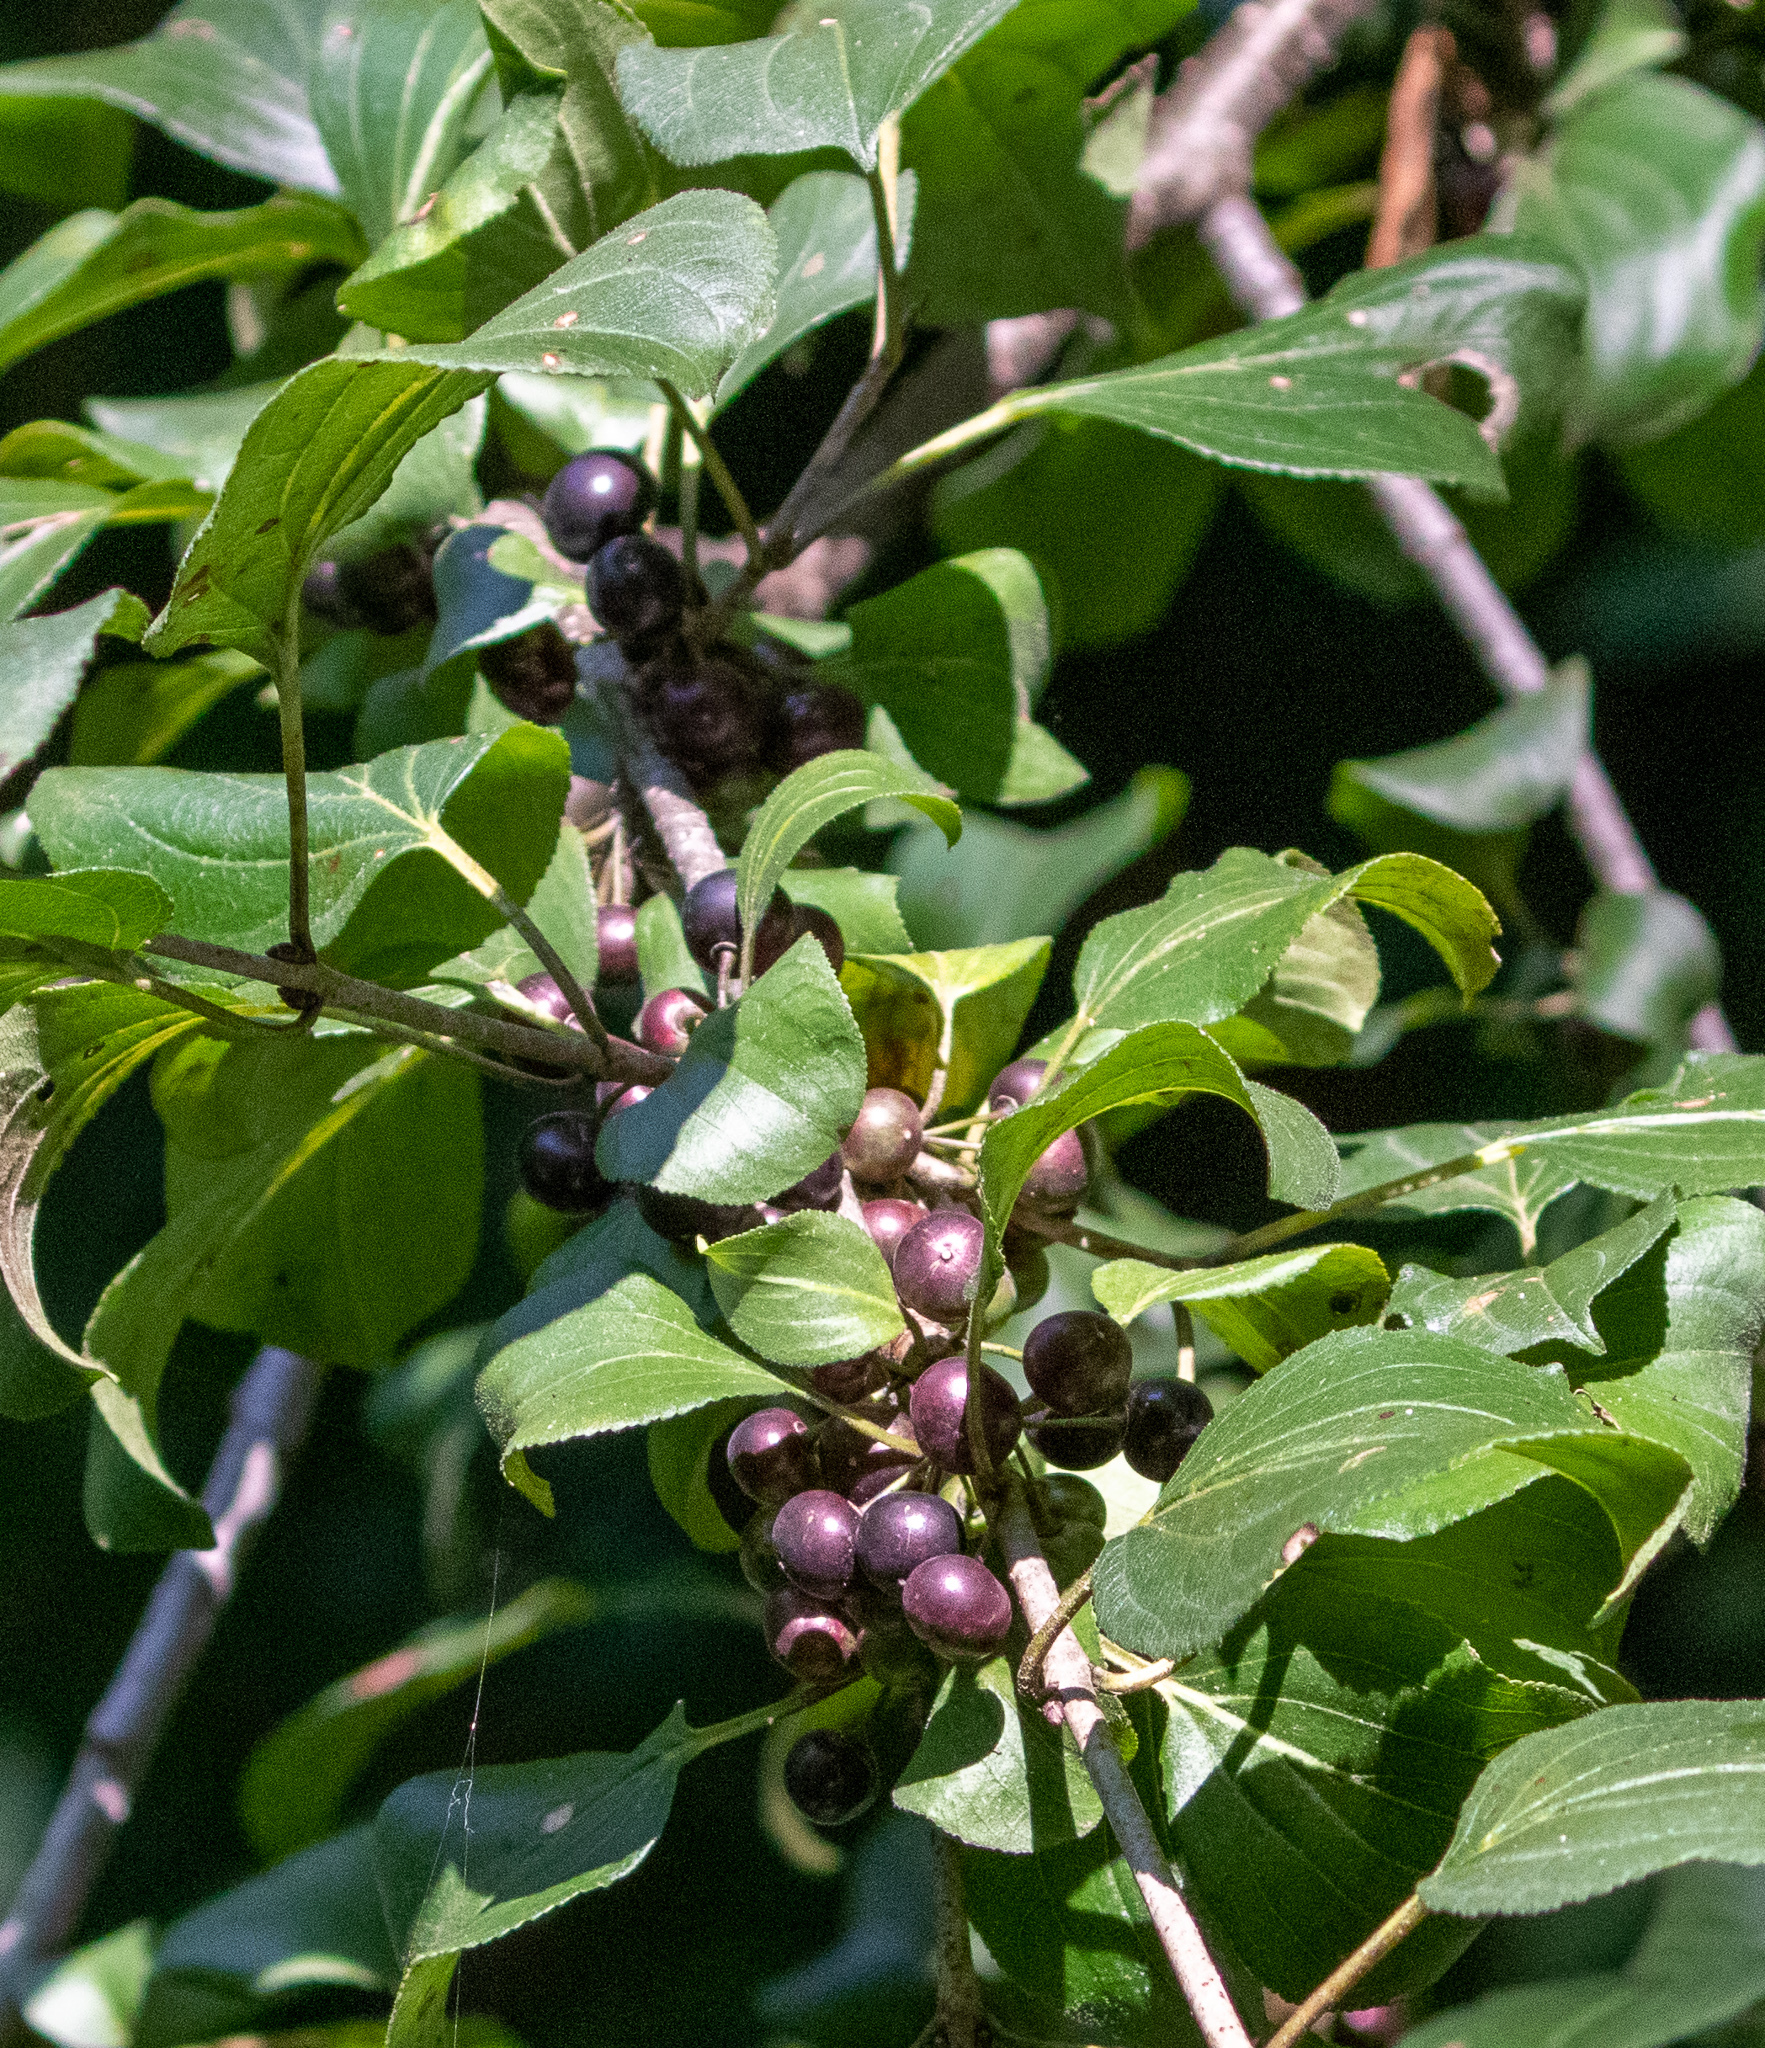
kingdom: Plantae
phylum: Tracheophyta
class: Magnoliopsida
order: Rosales
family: Rhamnaceae
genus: Rhamnus
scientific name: Rhamnus cathartica
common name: Common buckthorn
